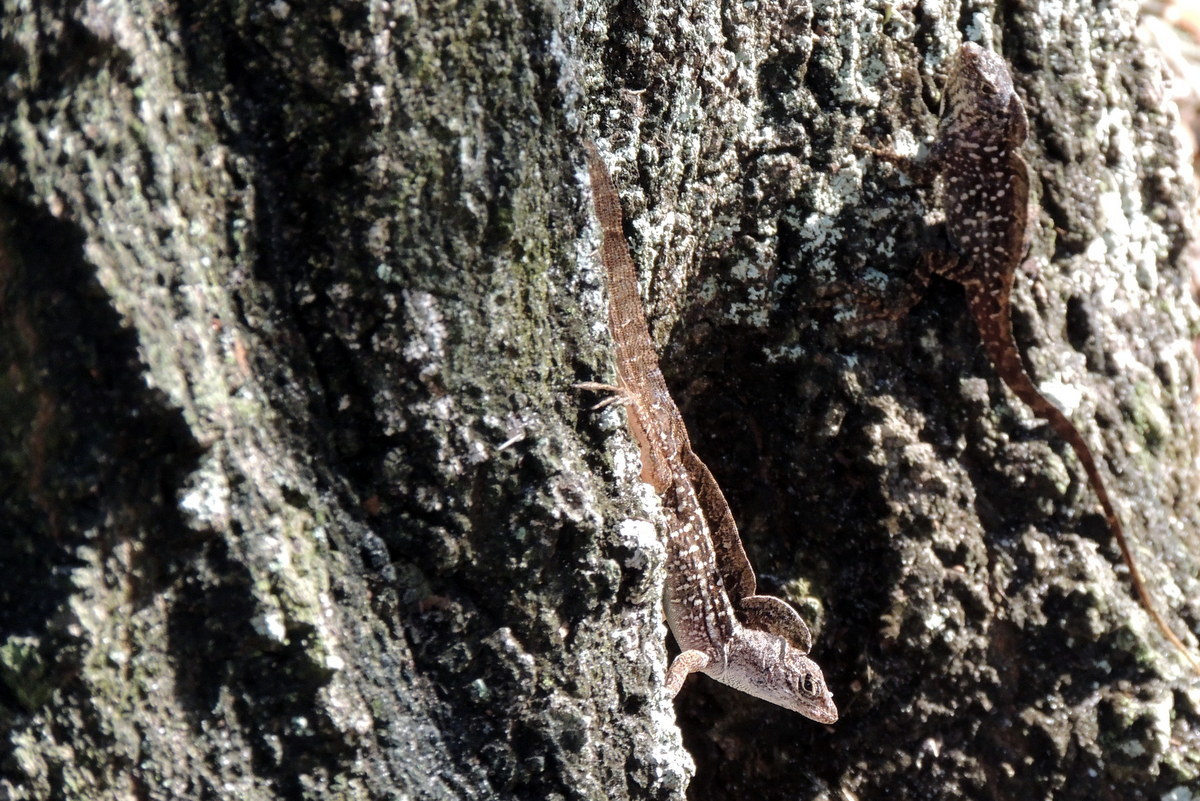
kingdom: Animalia
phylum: Chordata
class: Squamata
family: Dactyloidae
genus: Anolis
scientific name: Anolis sagrei
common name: Brown anole
